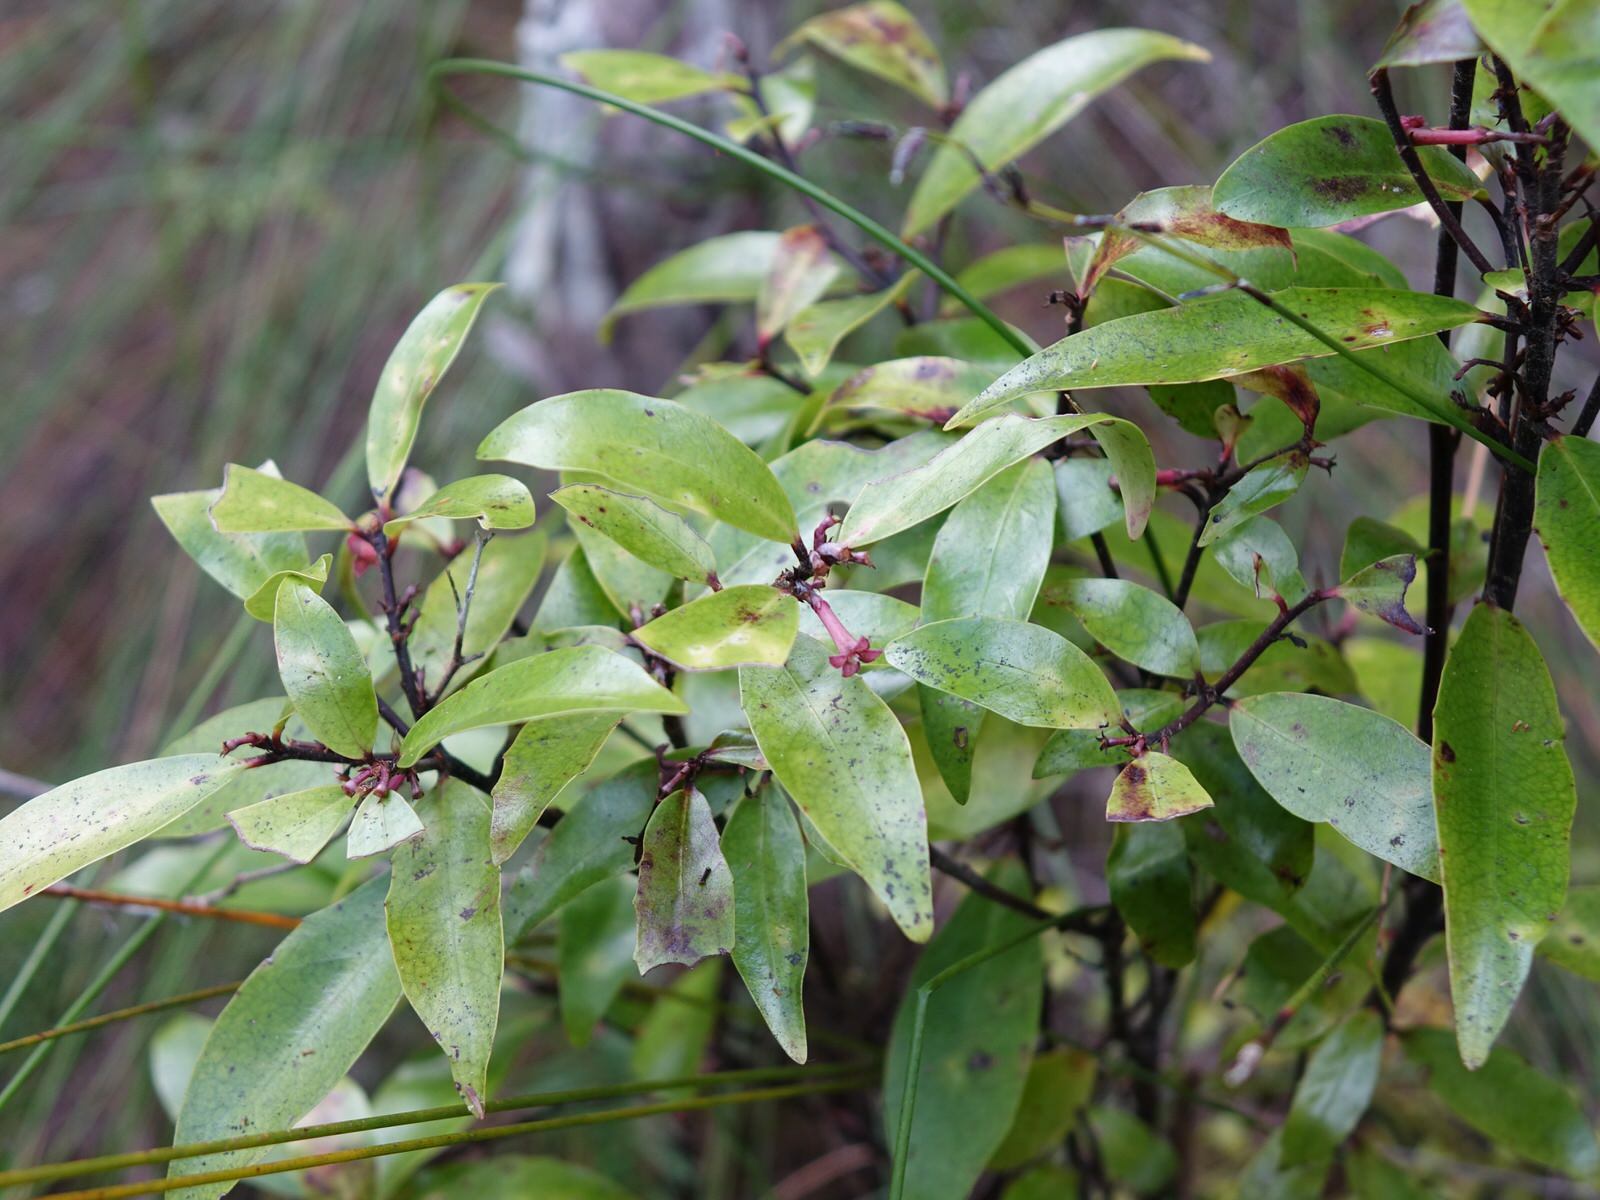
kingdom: Plantae
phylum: Tracheophyta
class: Magnoliopsida
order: Asterales
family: Alseuosmiaceae
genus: Alseuosmia
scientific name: Alseuosmia quercifolia
